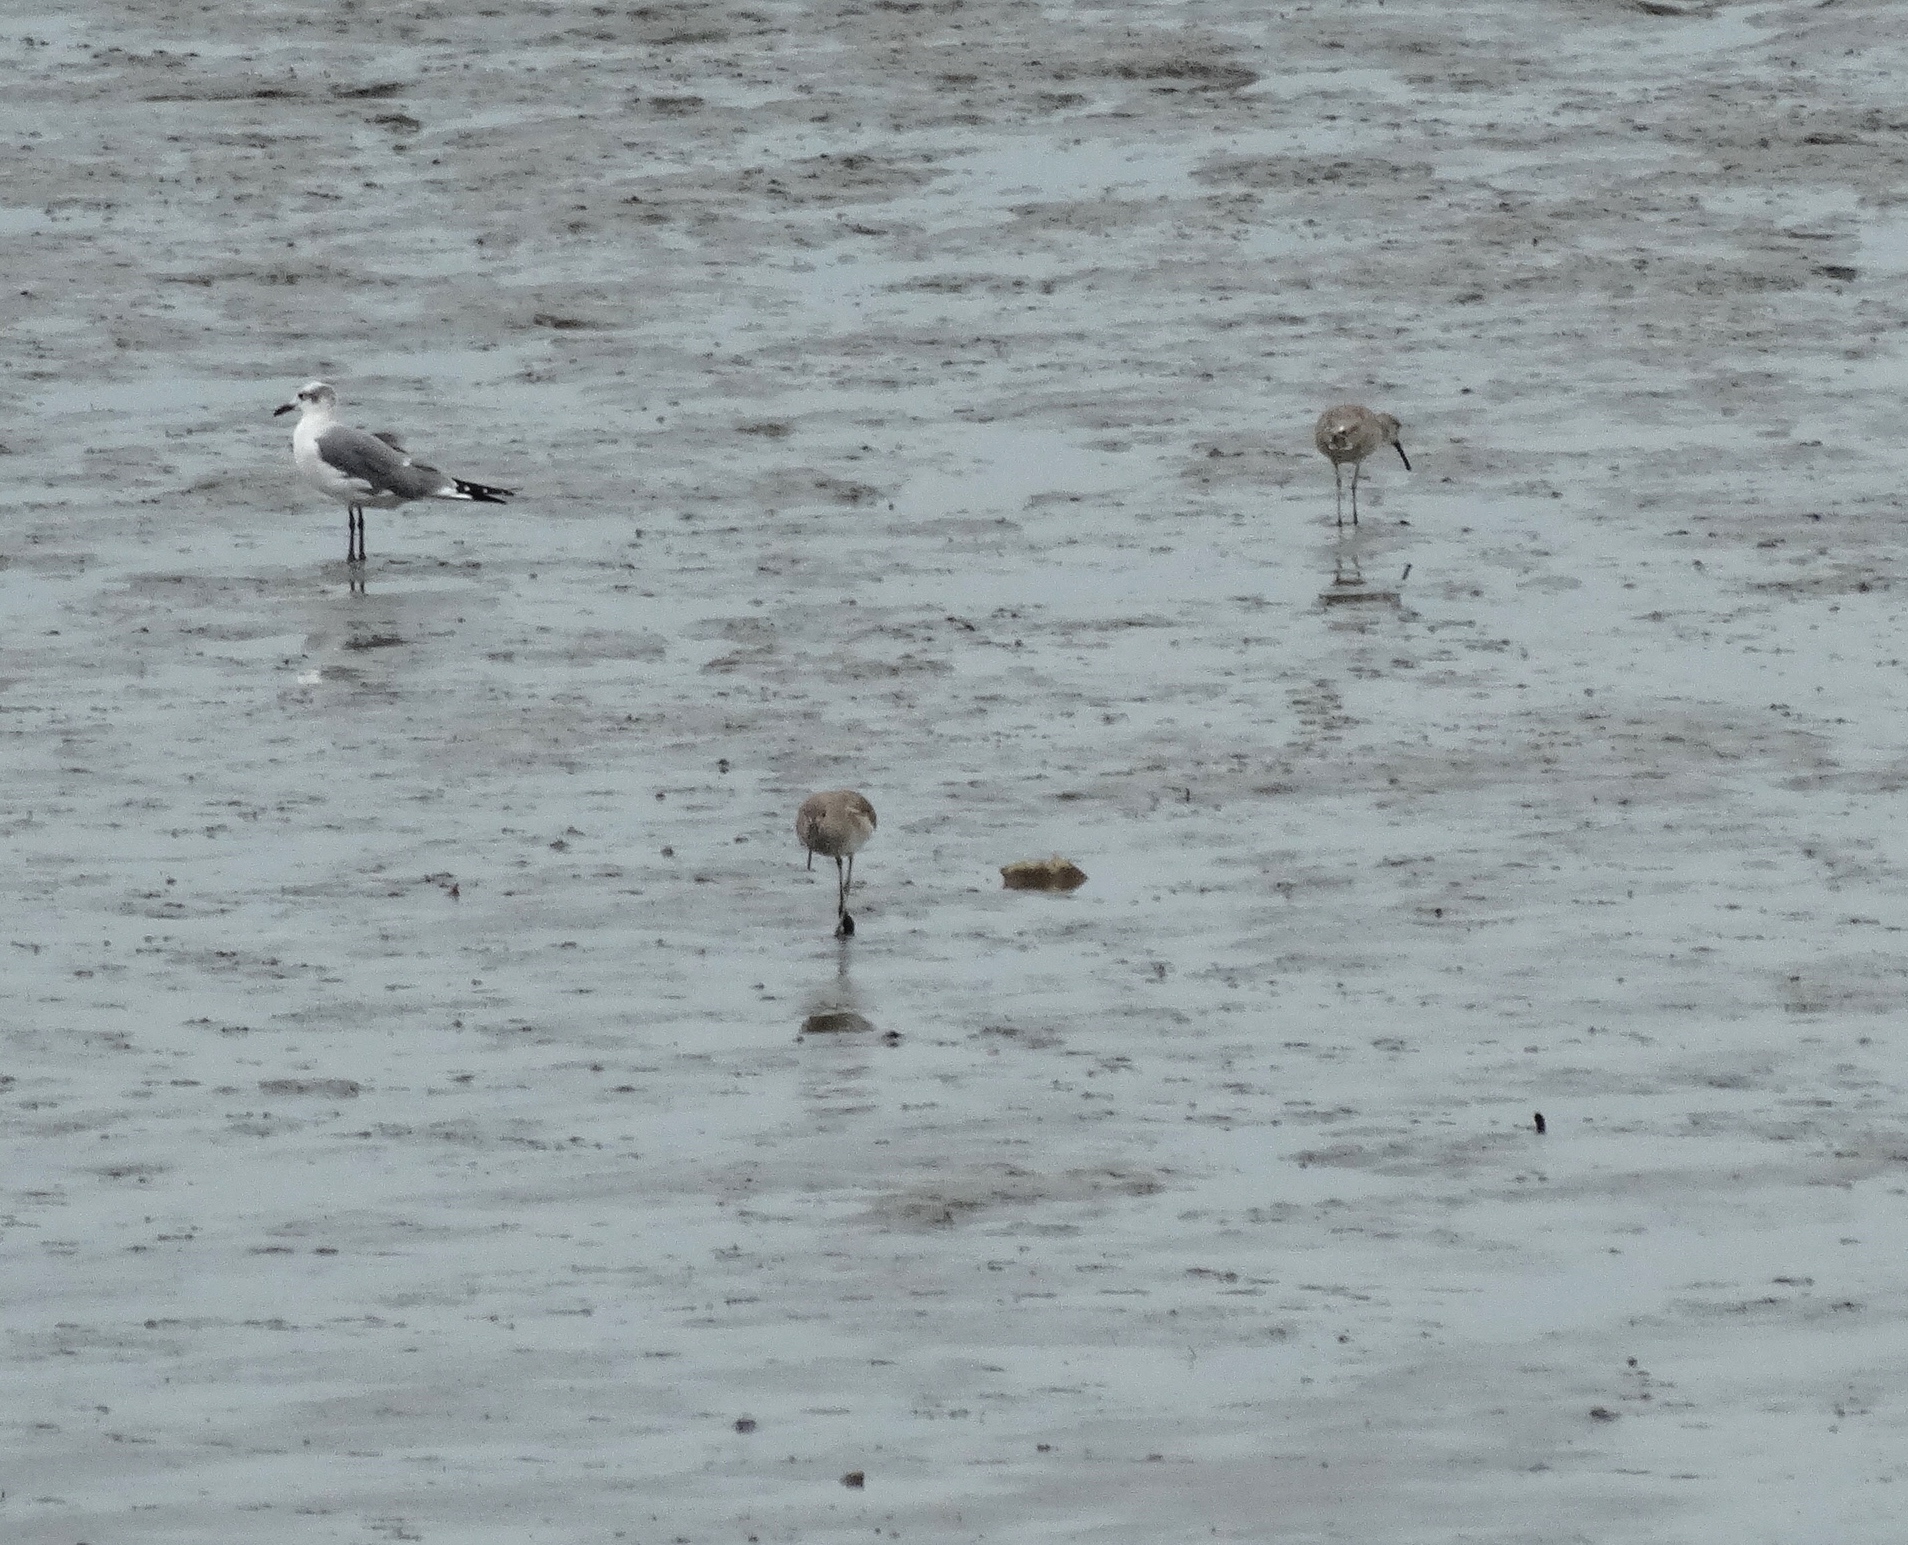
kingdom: Animalia
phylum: Chordata
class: Aves
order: Charadriiformes
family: Scolopacidae
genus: Tringa
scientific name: Tringa semipalmata
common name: Willet
